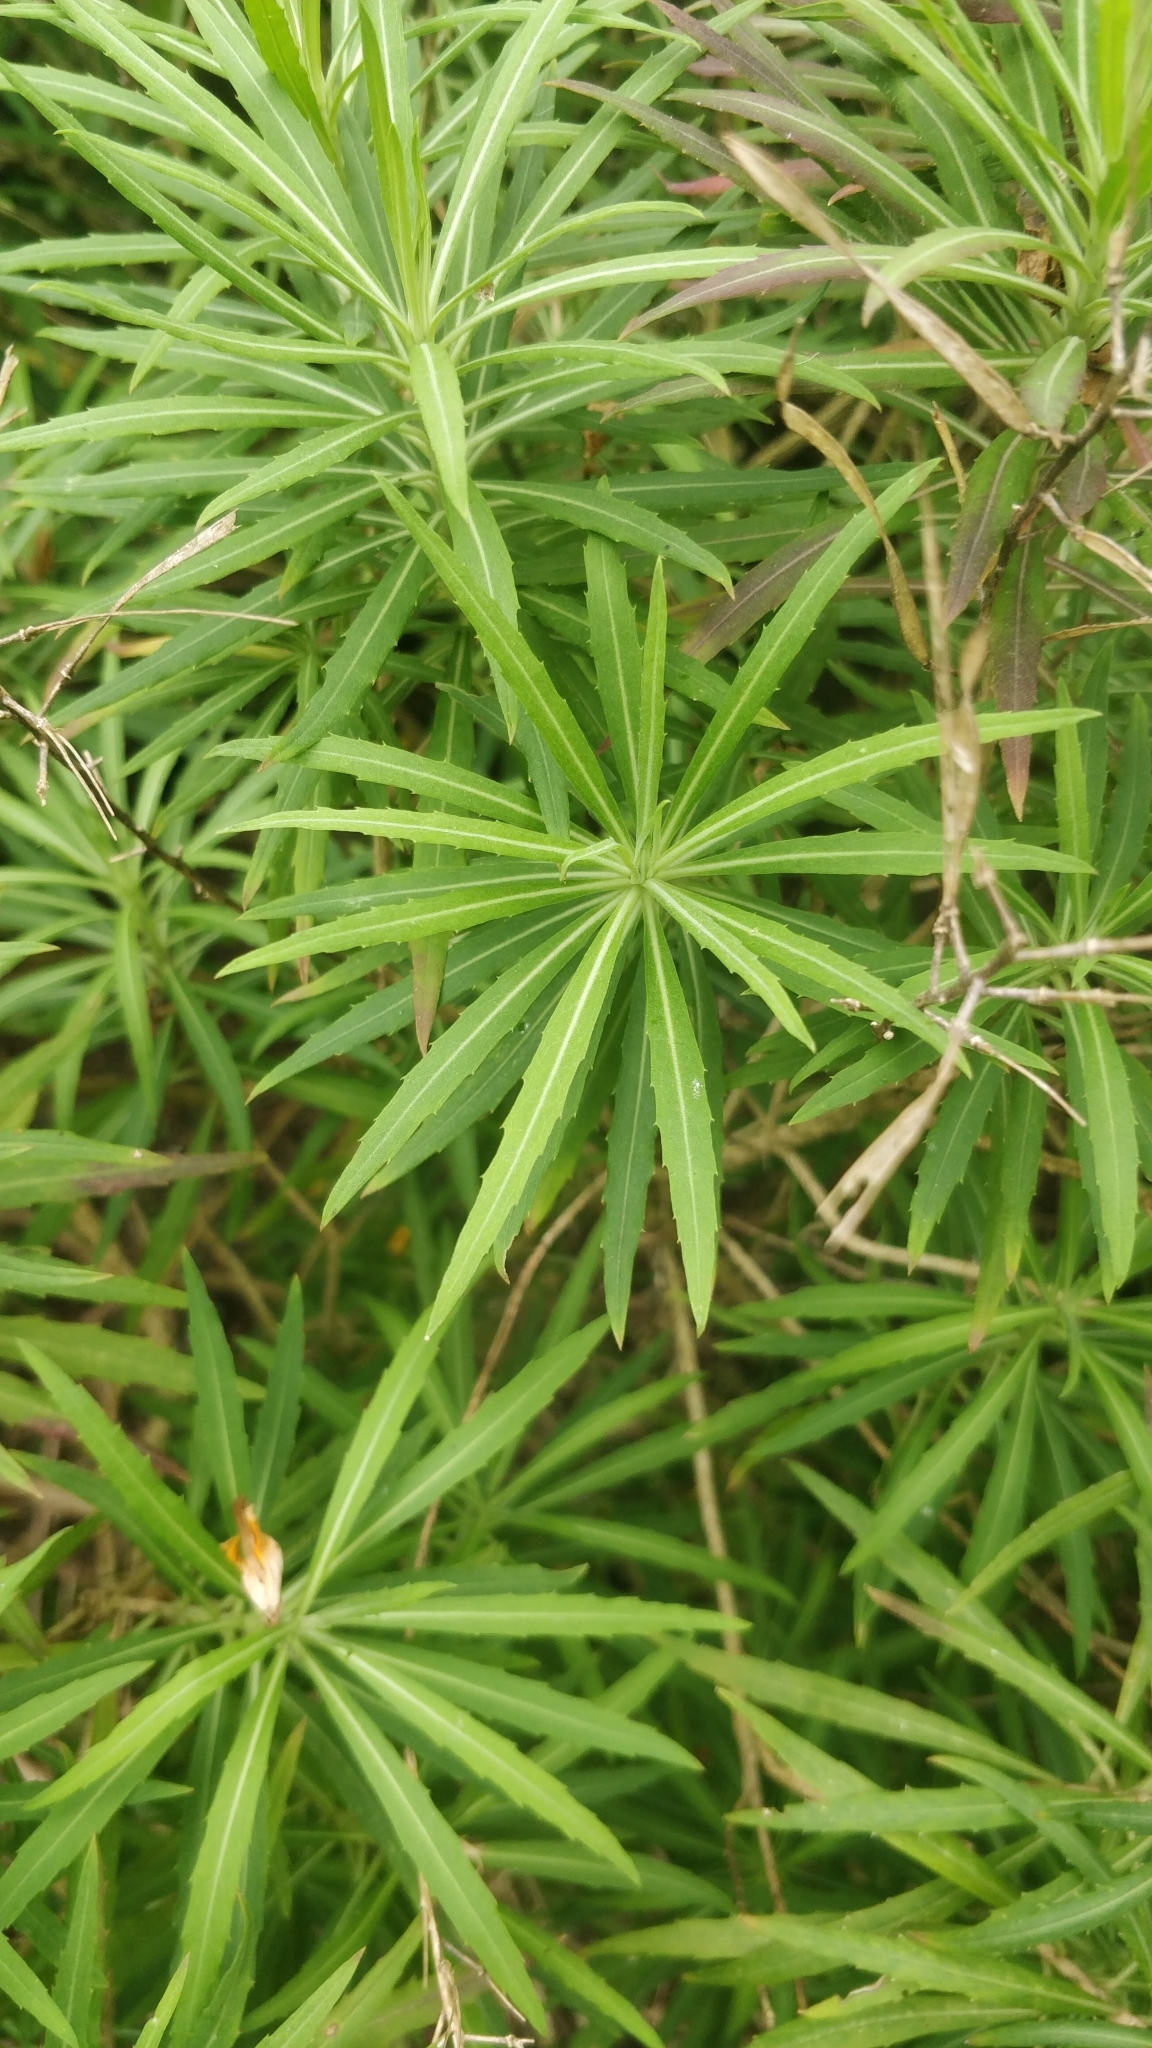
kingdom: Plantae
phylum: Tracheophyta
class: Magnoliopsida
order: Brassicales
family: Brassicaceae
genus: Erysimum
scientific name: Erysimum bicolor
